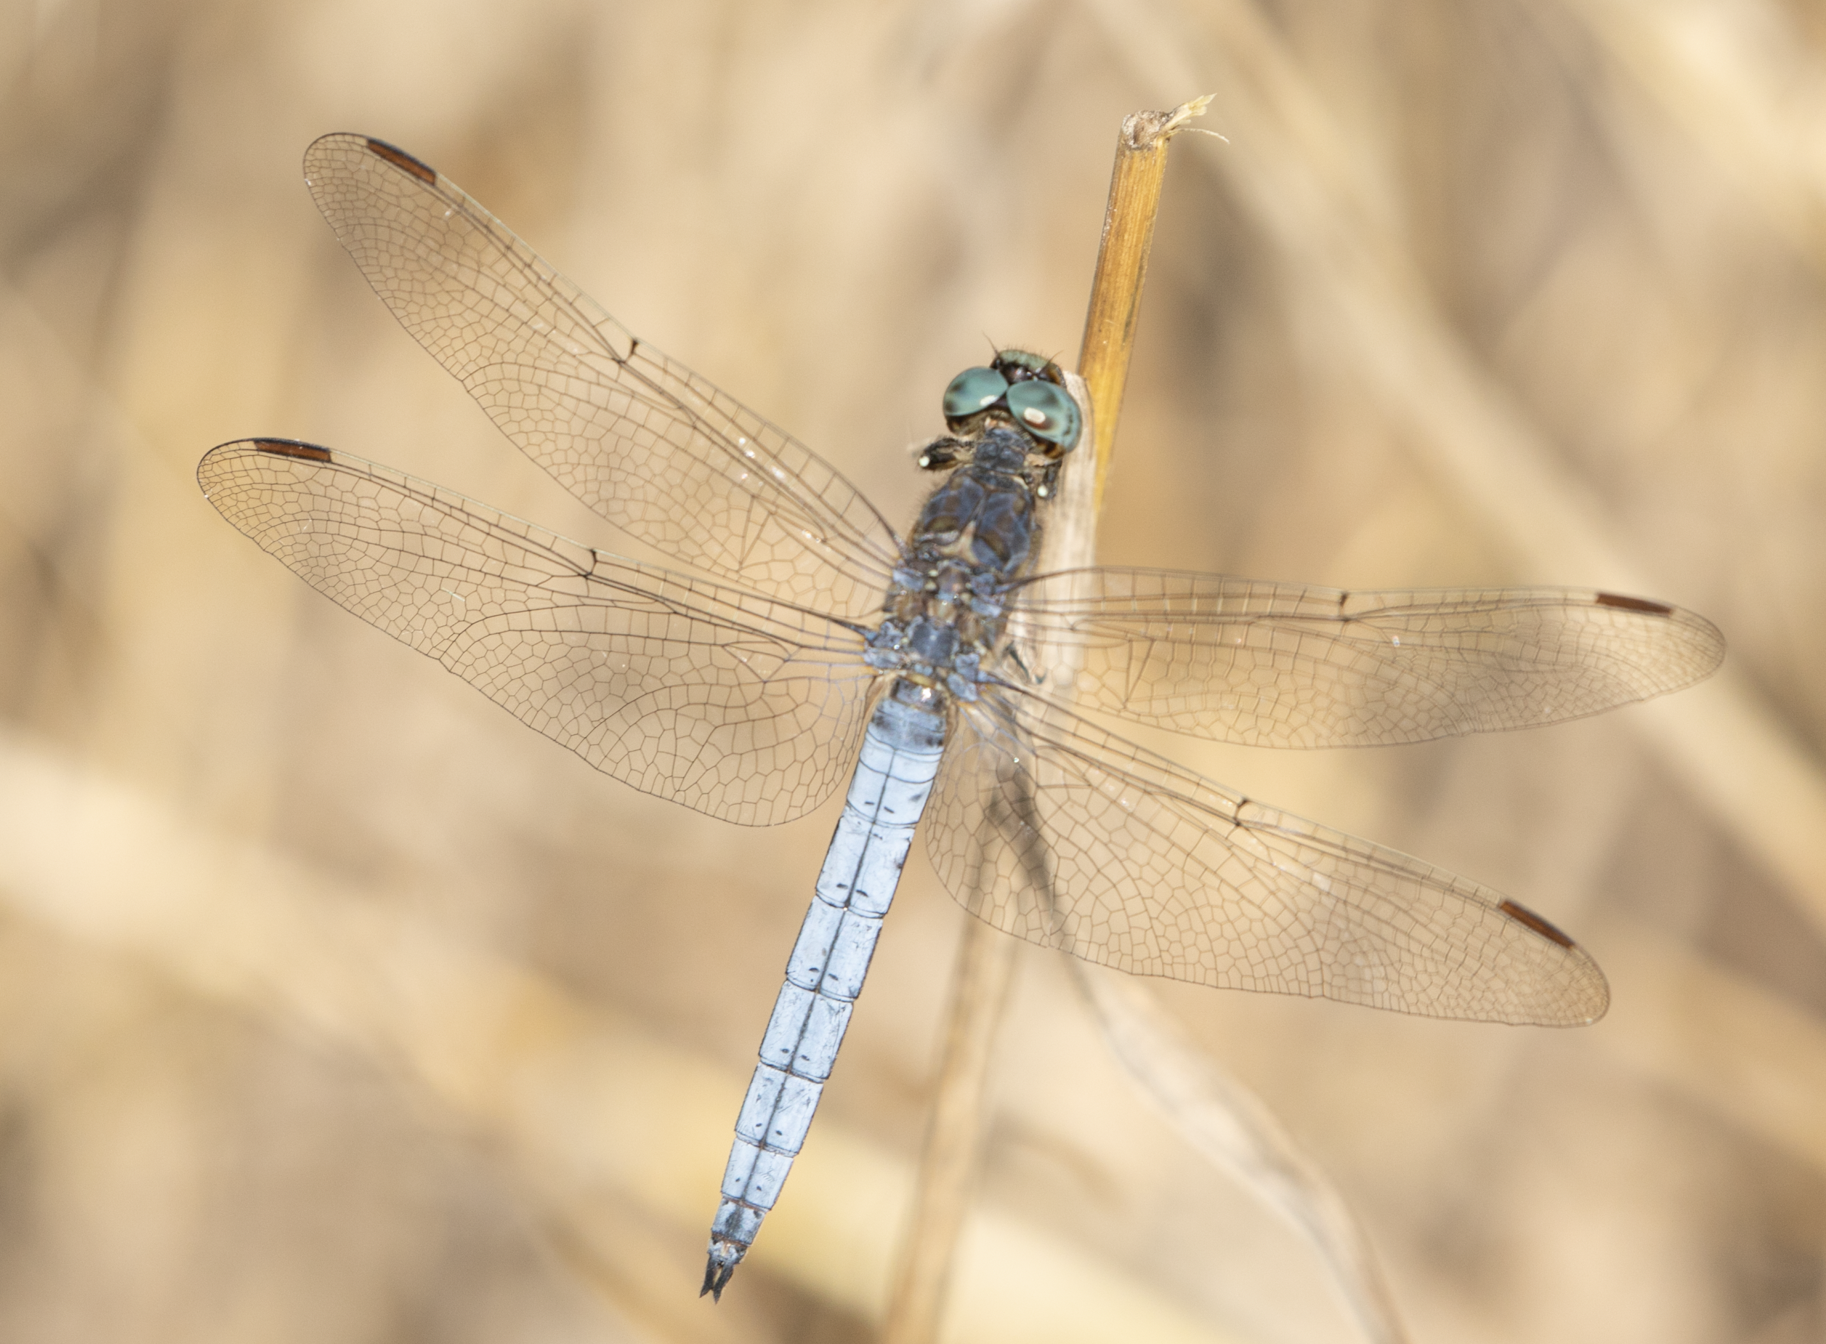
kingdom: Animalia
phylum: Arthropoda
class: Insecta
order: Odonata
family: Libellulidae
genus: Orthetrum
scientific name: Orthetrum coerulescens
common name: Keeled skimmer
